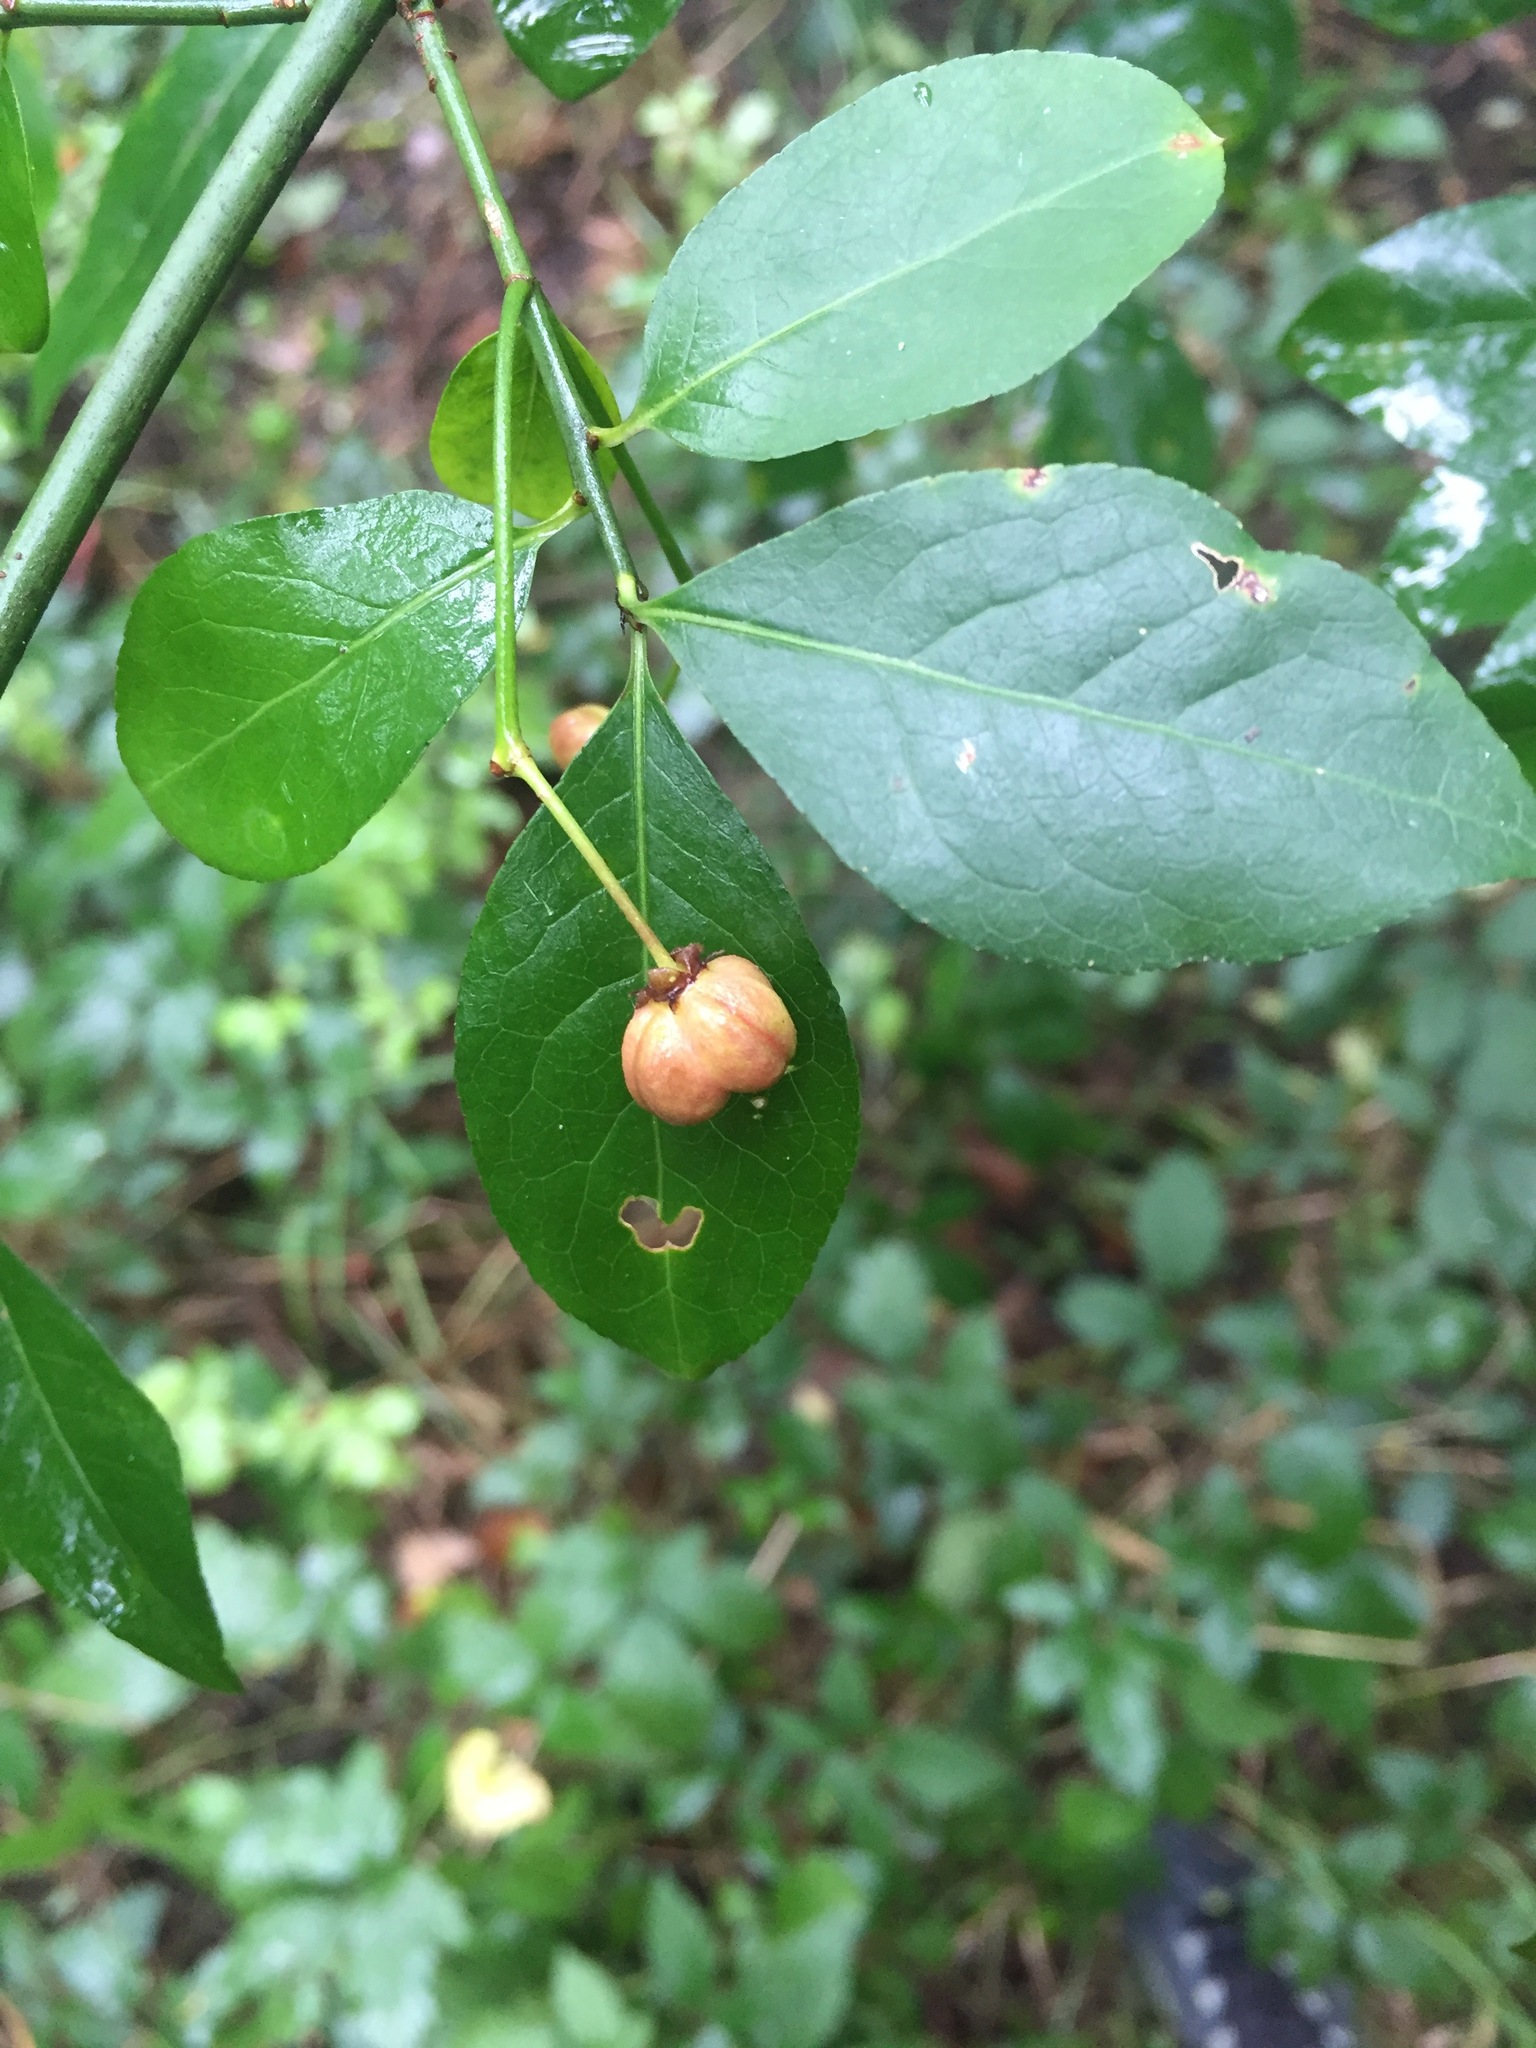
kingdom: Plantae
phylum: Tracheophyta
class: Magnoliopsida
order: Celastrales
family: Celastraceae
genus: Euonymus
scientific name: Euonymus europaeus
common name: Spindle
